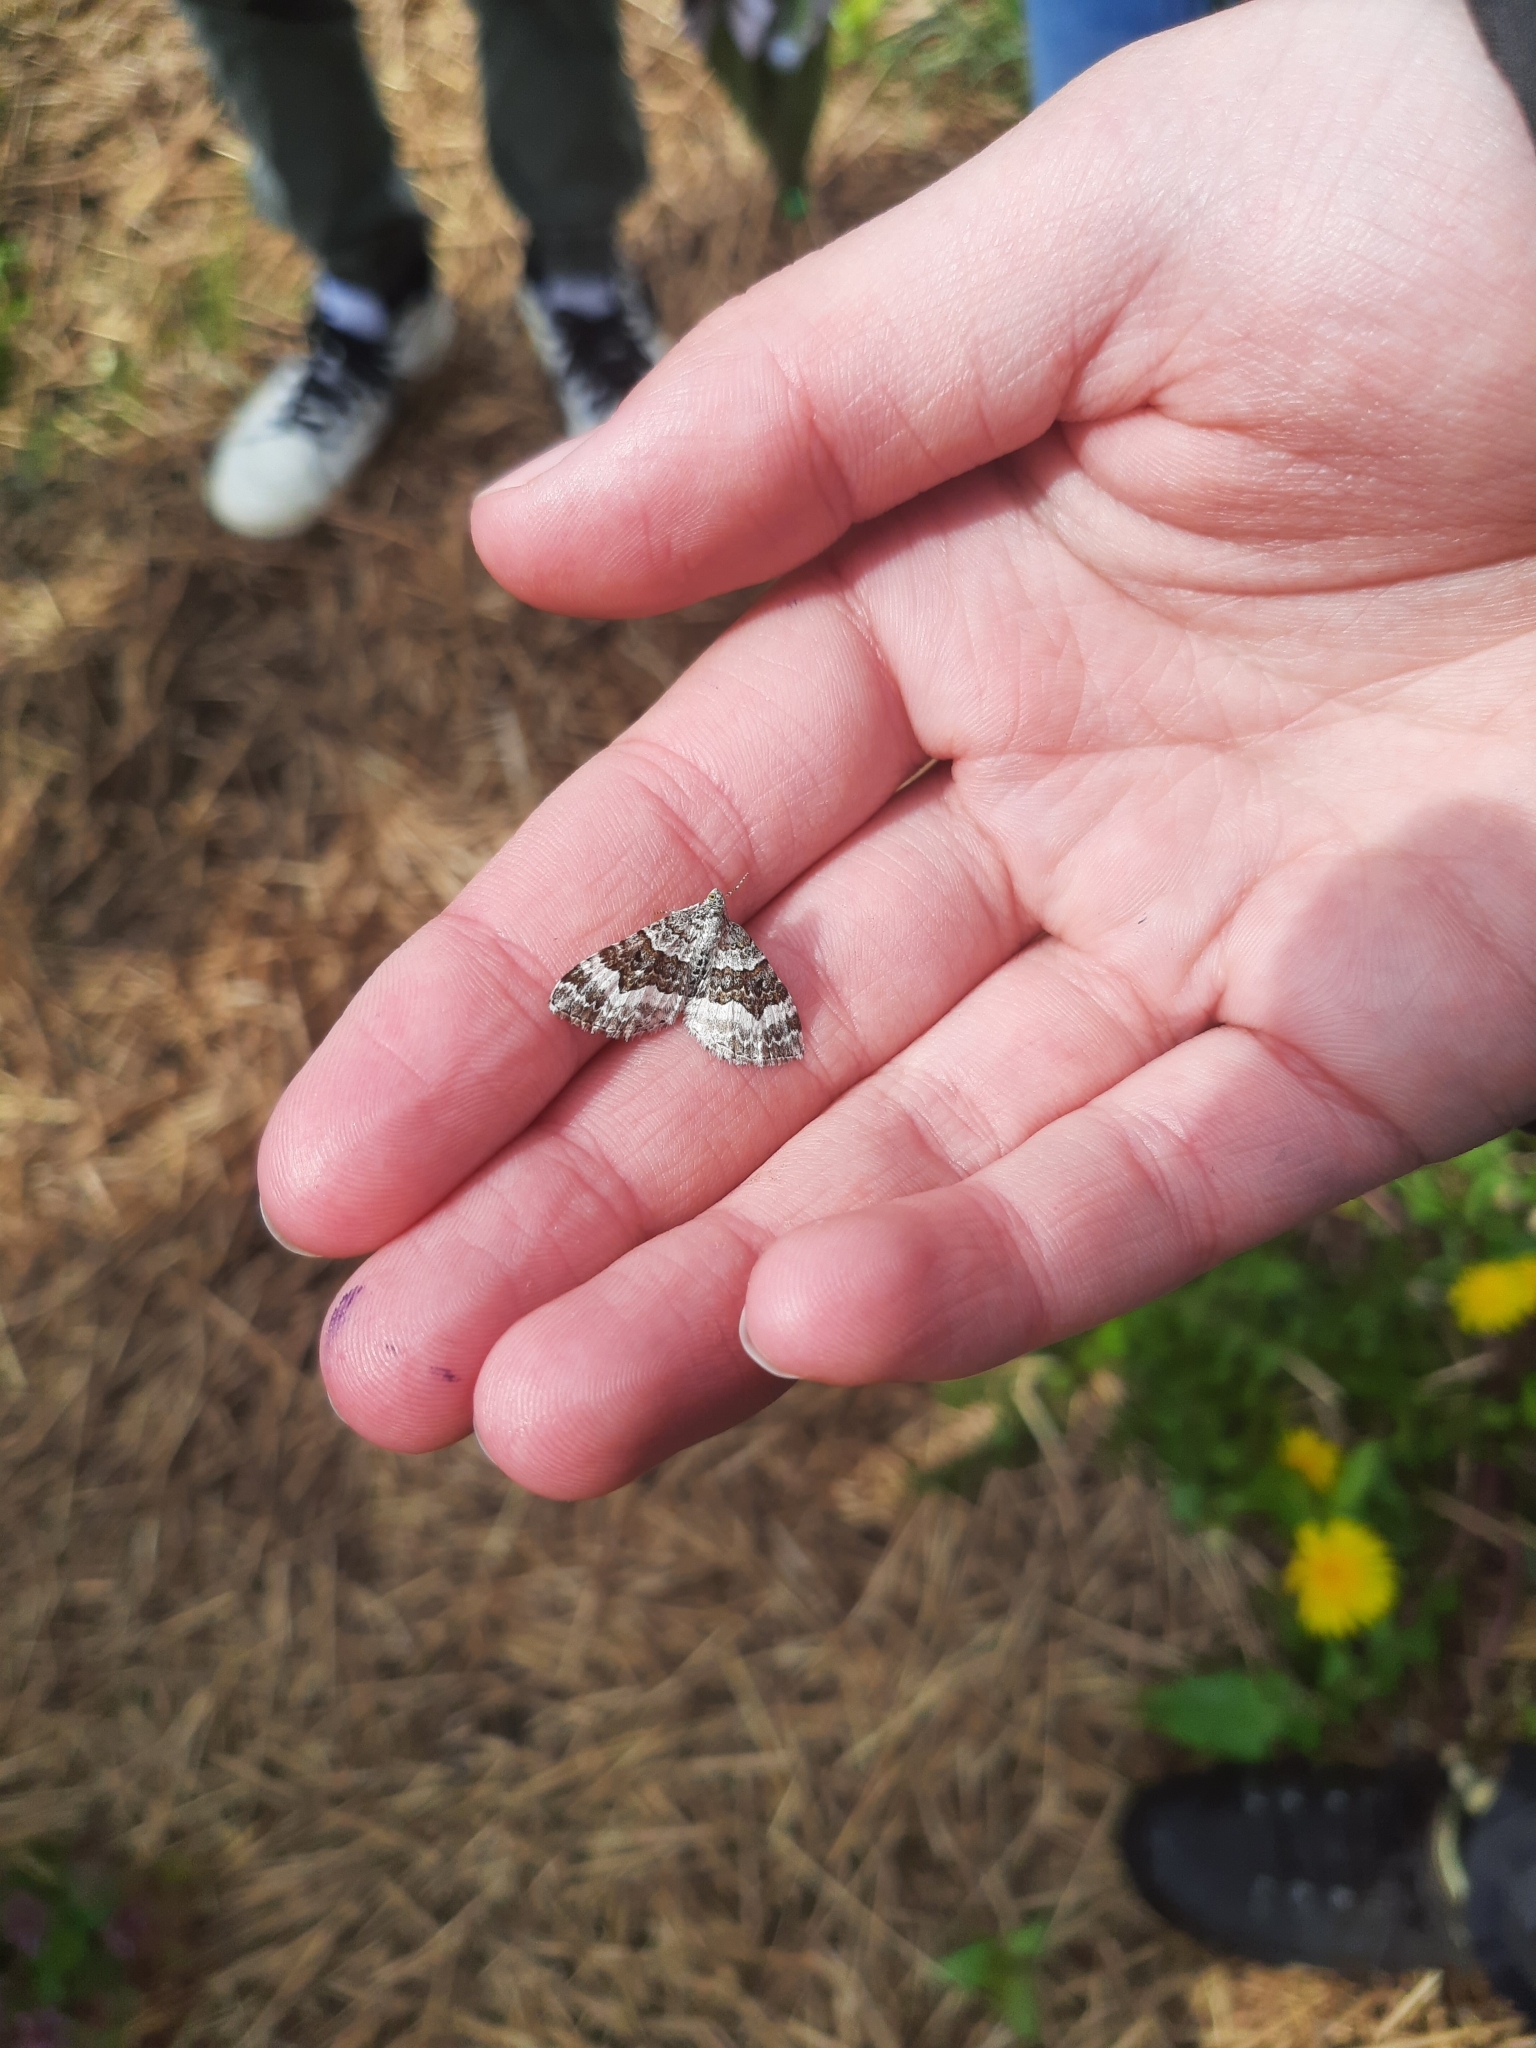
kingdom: Animalia
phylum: Arthropoda
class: Insecta
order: Lepidoptera
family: Geometridae
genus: Epirrhoe
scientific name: Epirrhoe alternata
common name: Common carpet
